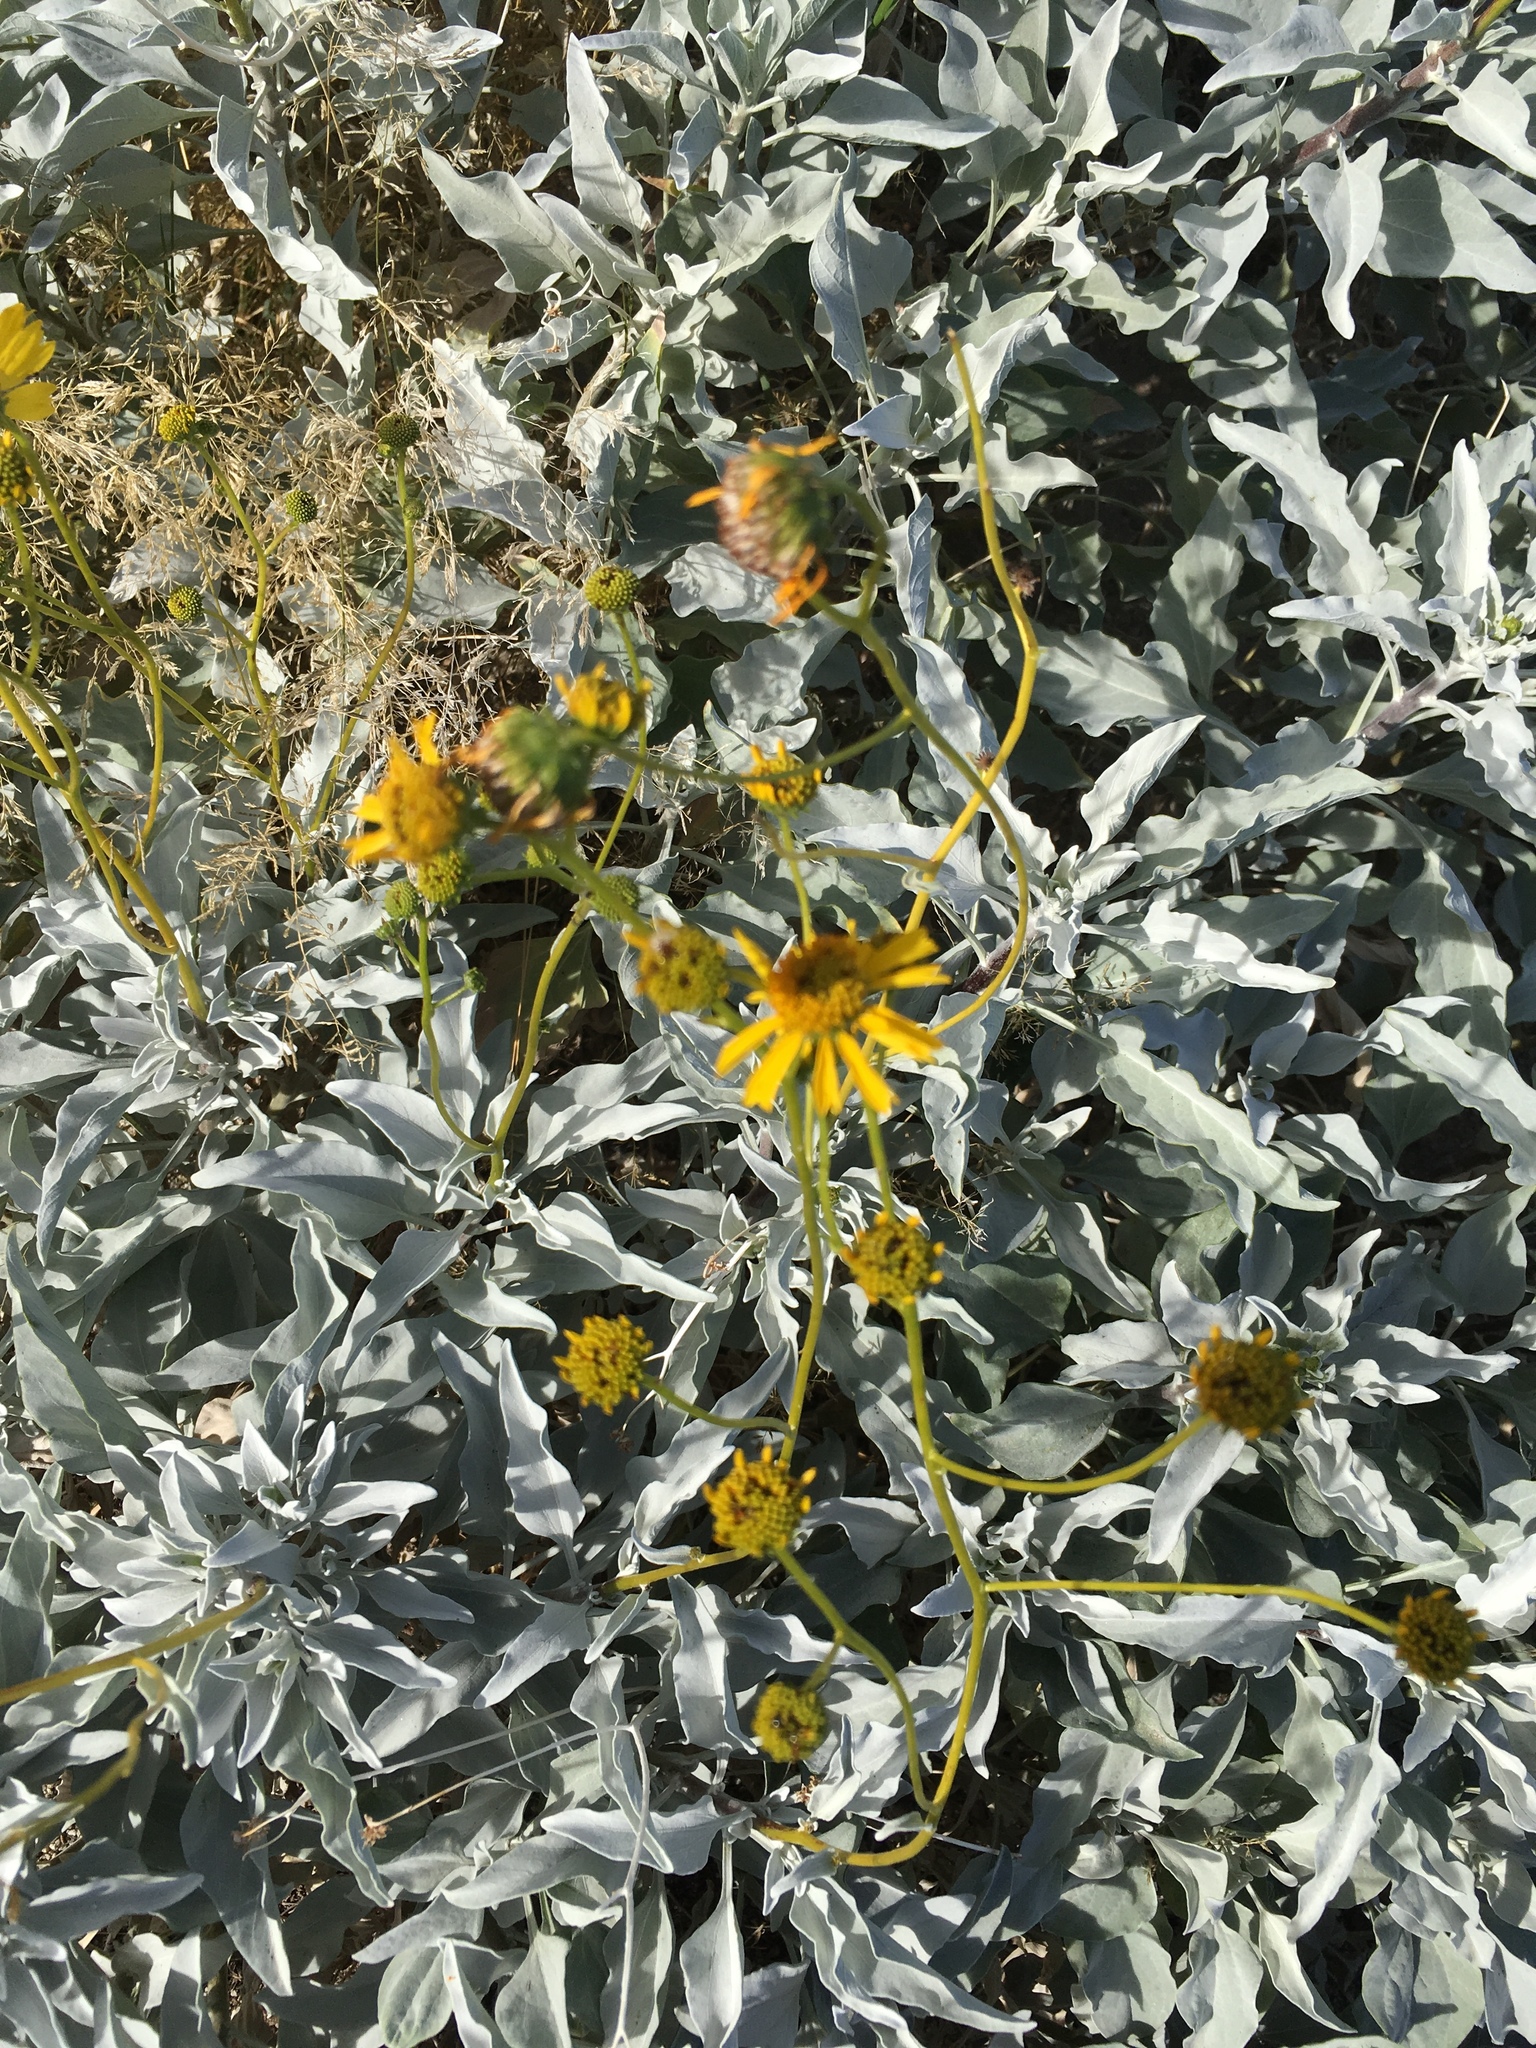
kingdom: Plantae
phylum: Tracheophyta
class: Magnoliopsida
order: Asterales
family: Asteraceae
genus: Encelia
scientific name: Encelia farinosa
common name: Brittlebush
